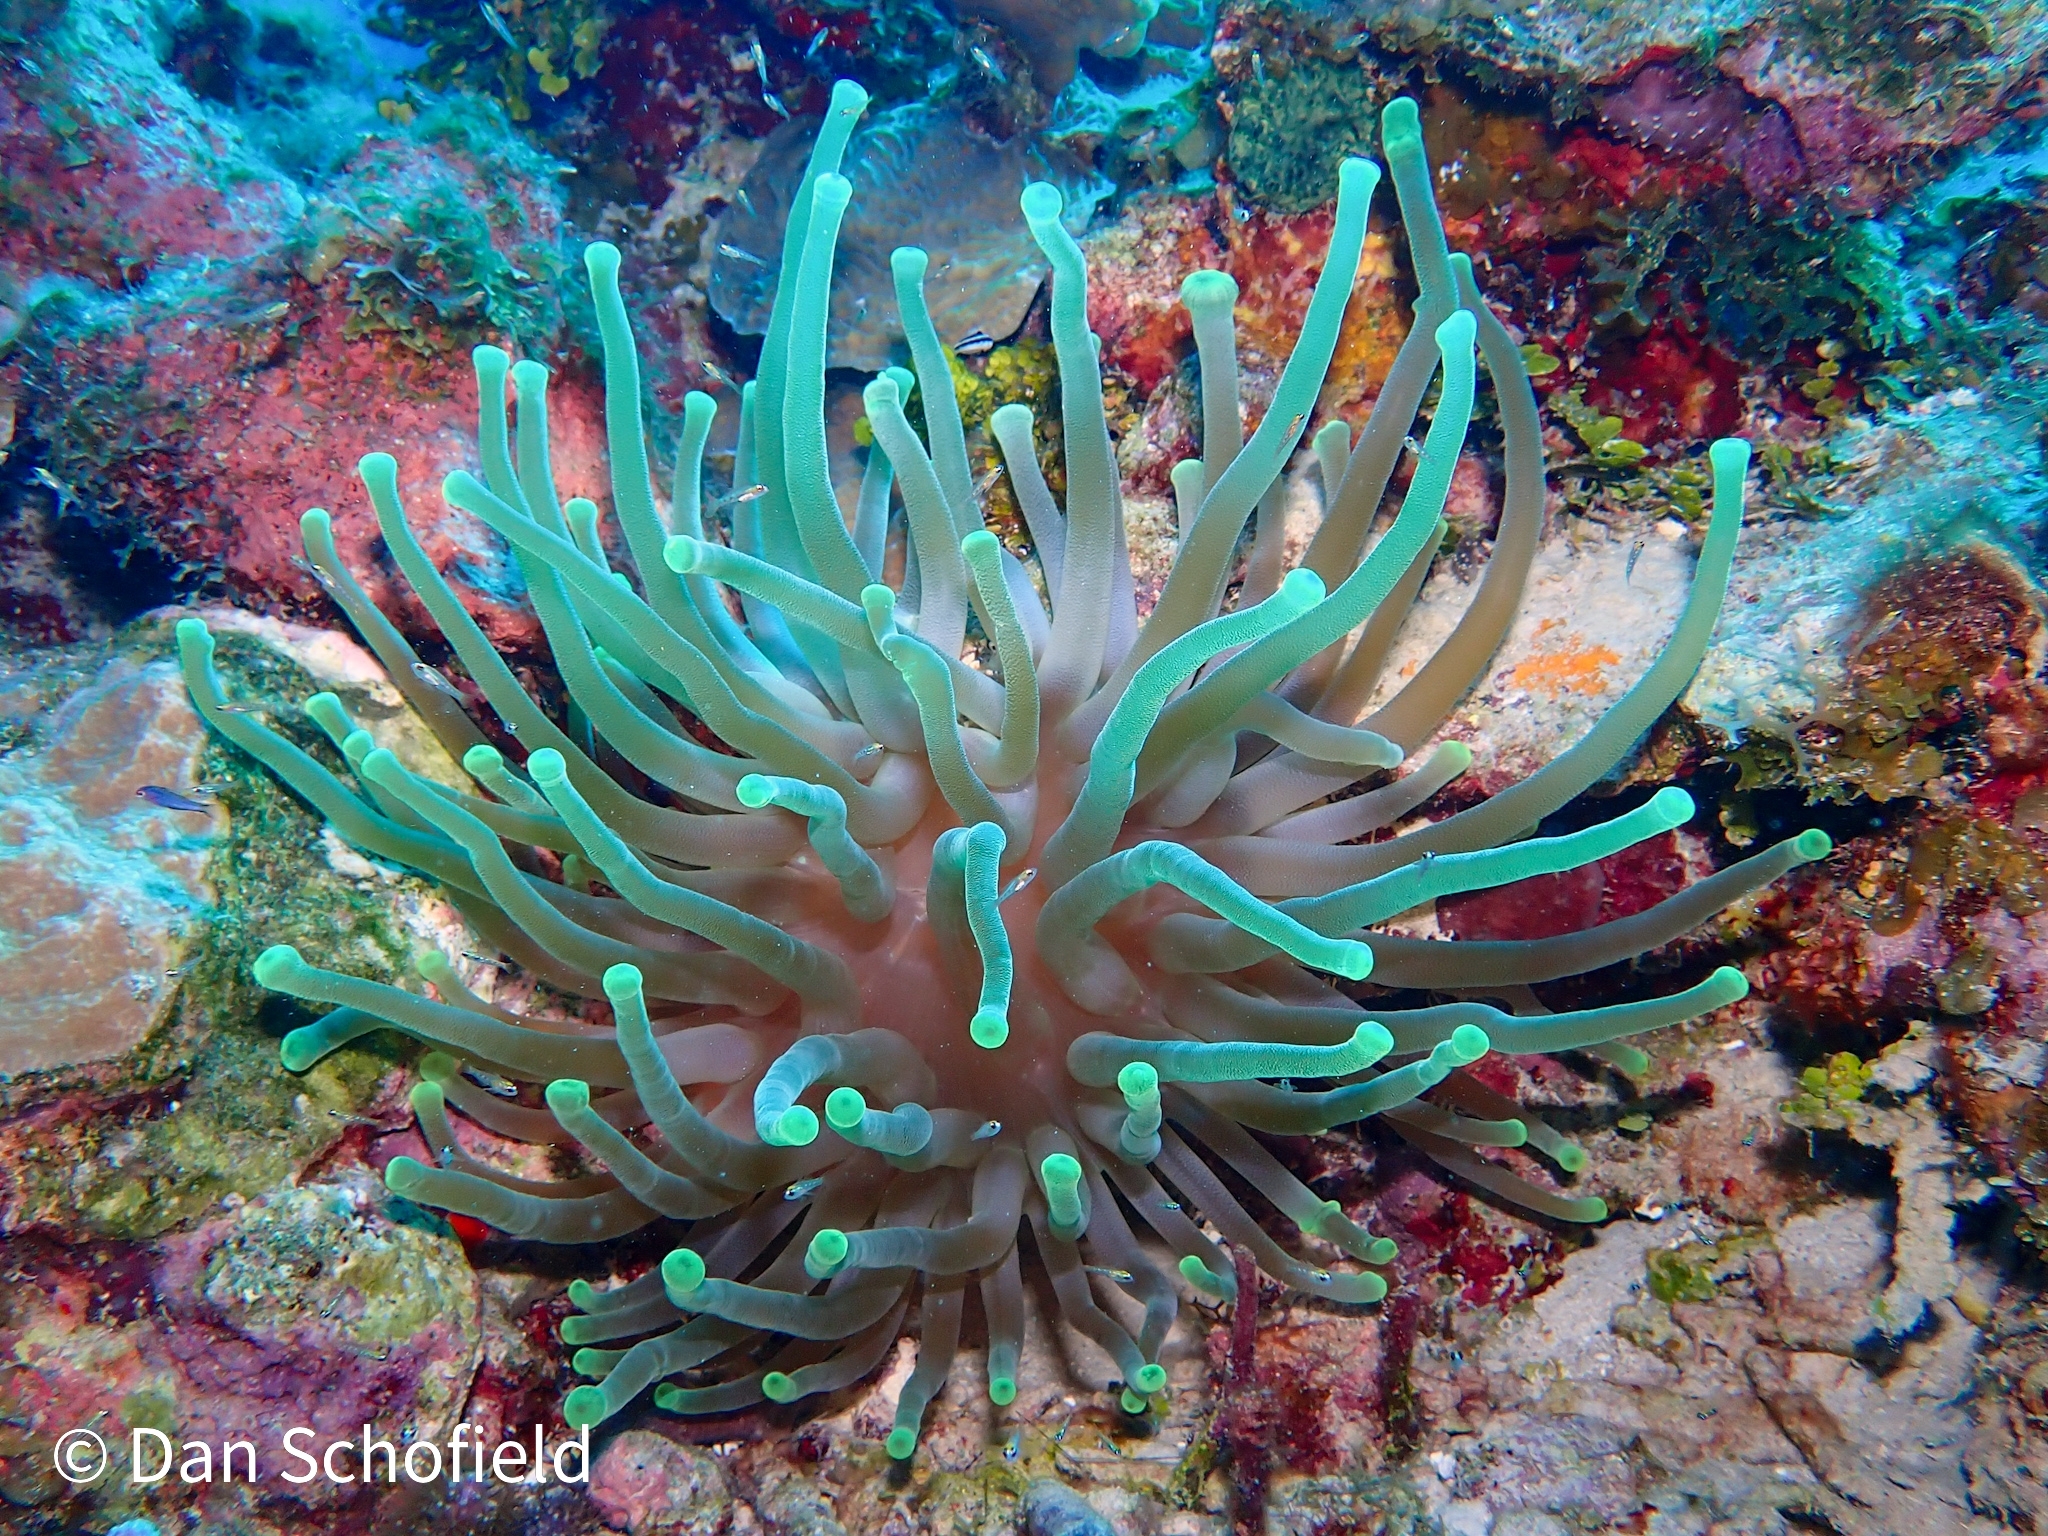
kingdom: Animalia
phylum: Cnidaria
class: Anthozoa
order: Actiniaria
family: Actiniidae
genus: Condylactis
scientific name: Condylactis gigantea
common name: Giant caribbean anemone
